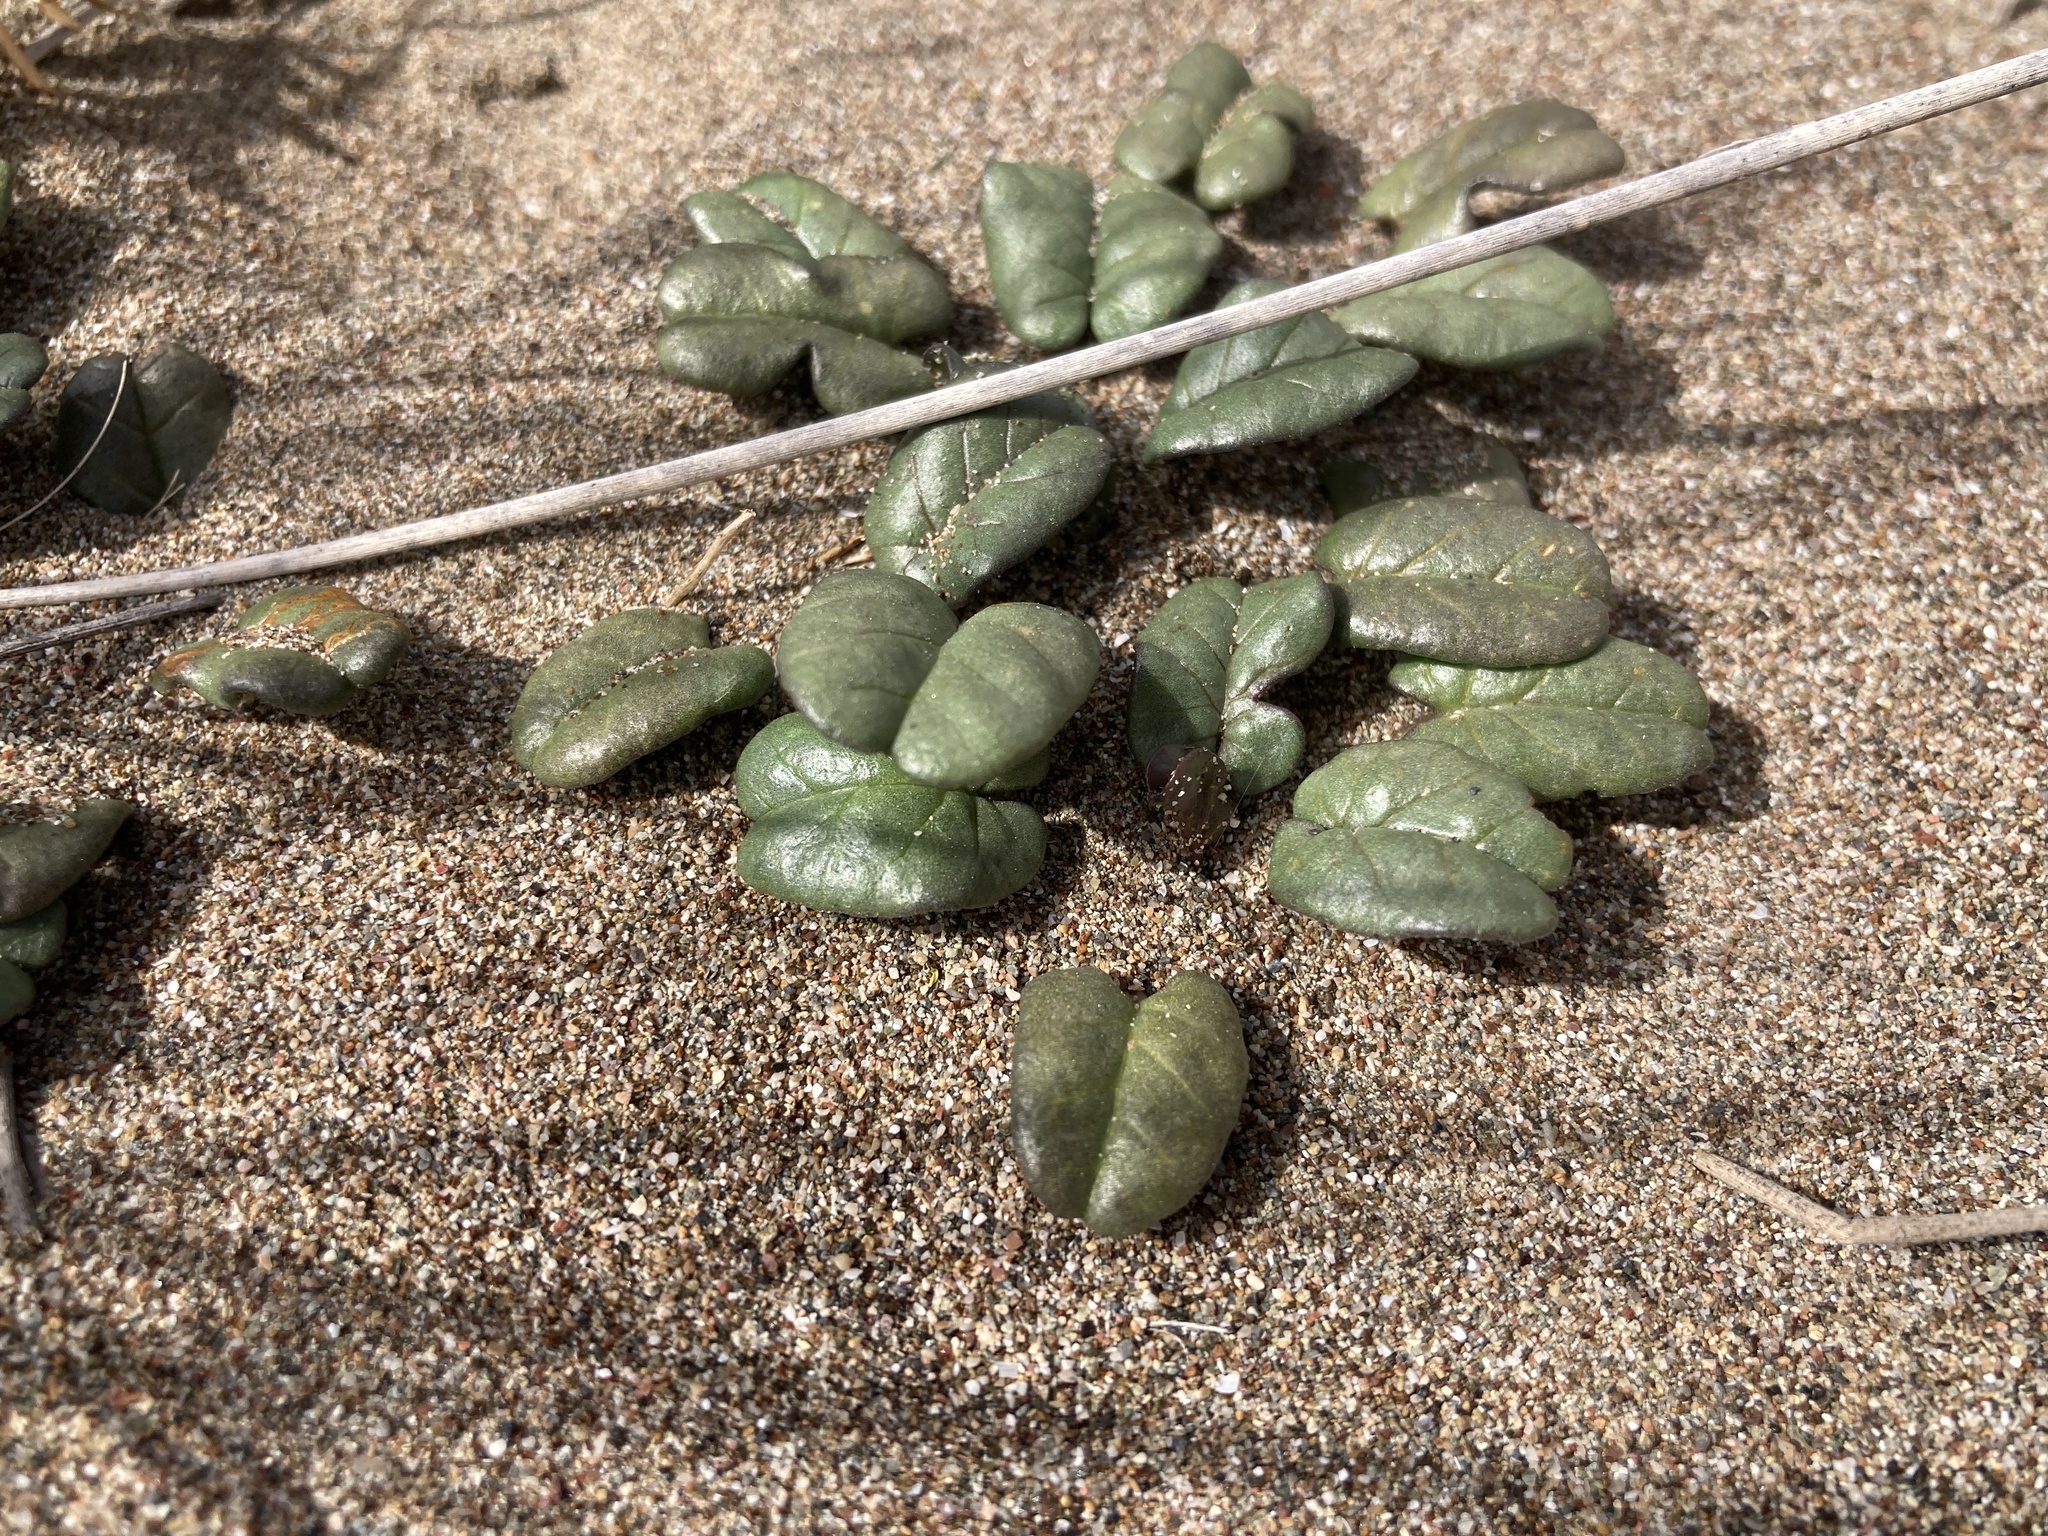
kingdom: Plantae
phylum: Tracheophyta
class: Magnoliopsida
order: Solanales
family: Convolvulaceae
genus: Ipomoea
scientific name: Ipomoea imperati
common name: Fiddle-leaf morning-glory
